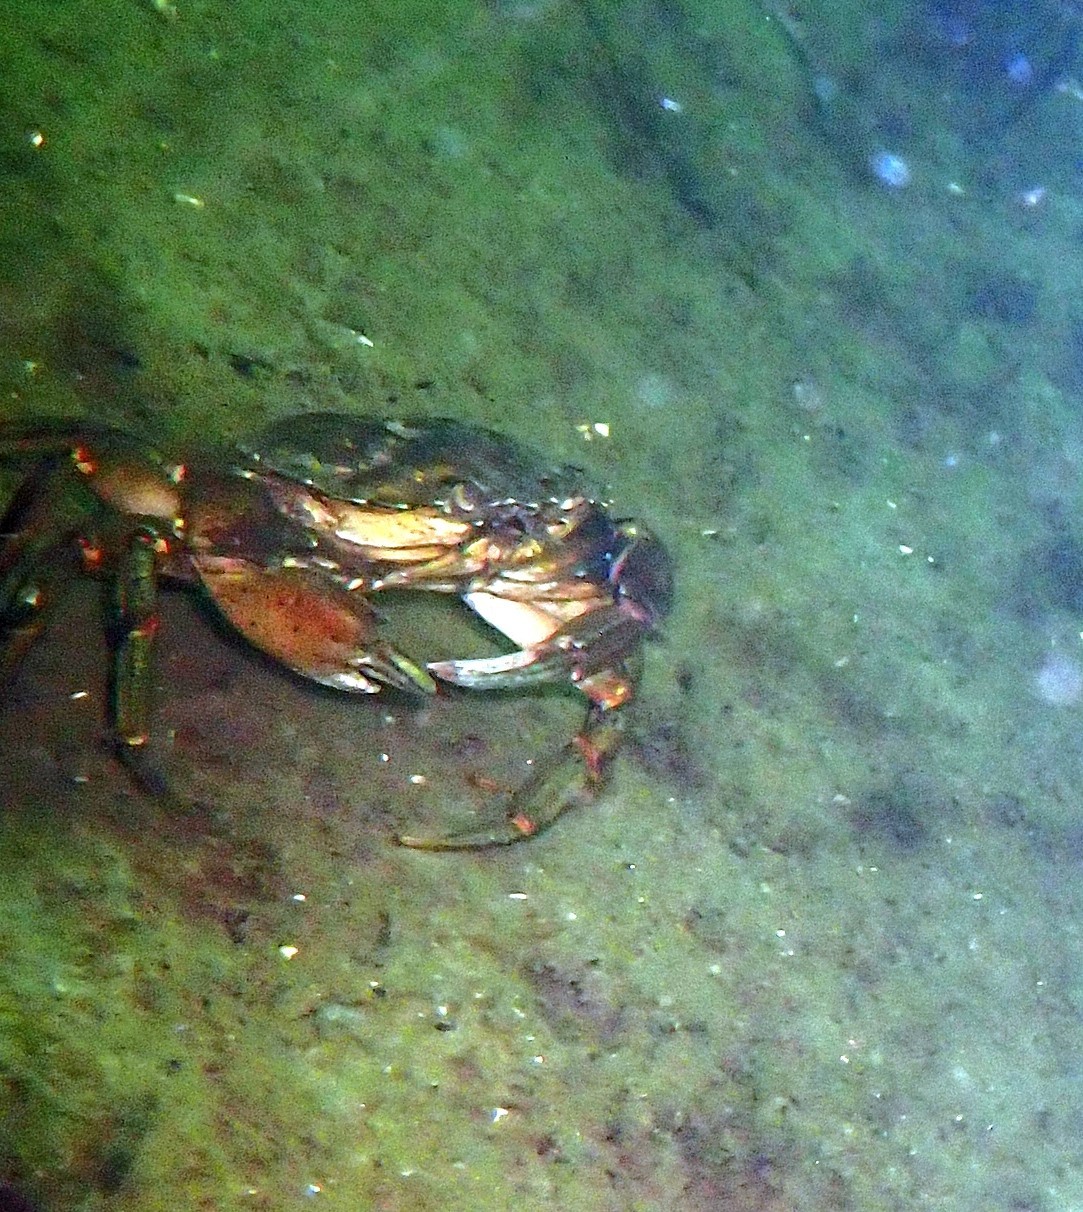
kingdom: Animalia
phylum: Arthropoda
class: Malacostraca
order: Decapoda
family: Carcinidae
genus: Carcinus
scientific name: Carcinus maenas
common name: European green crab
